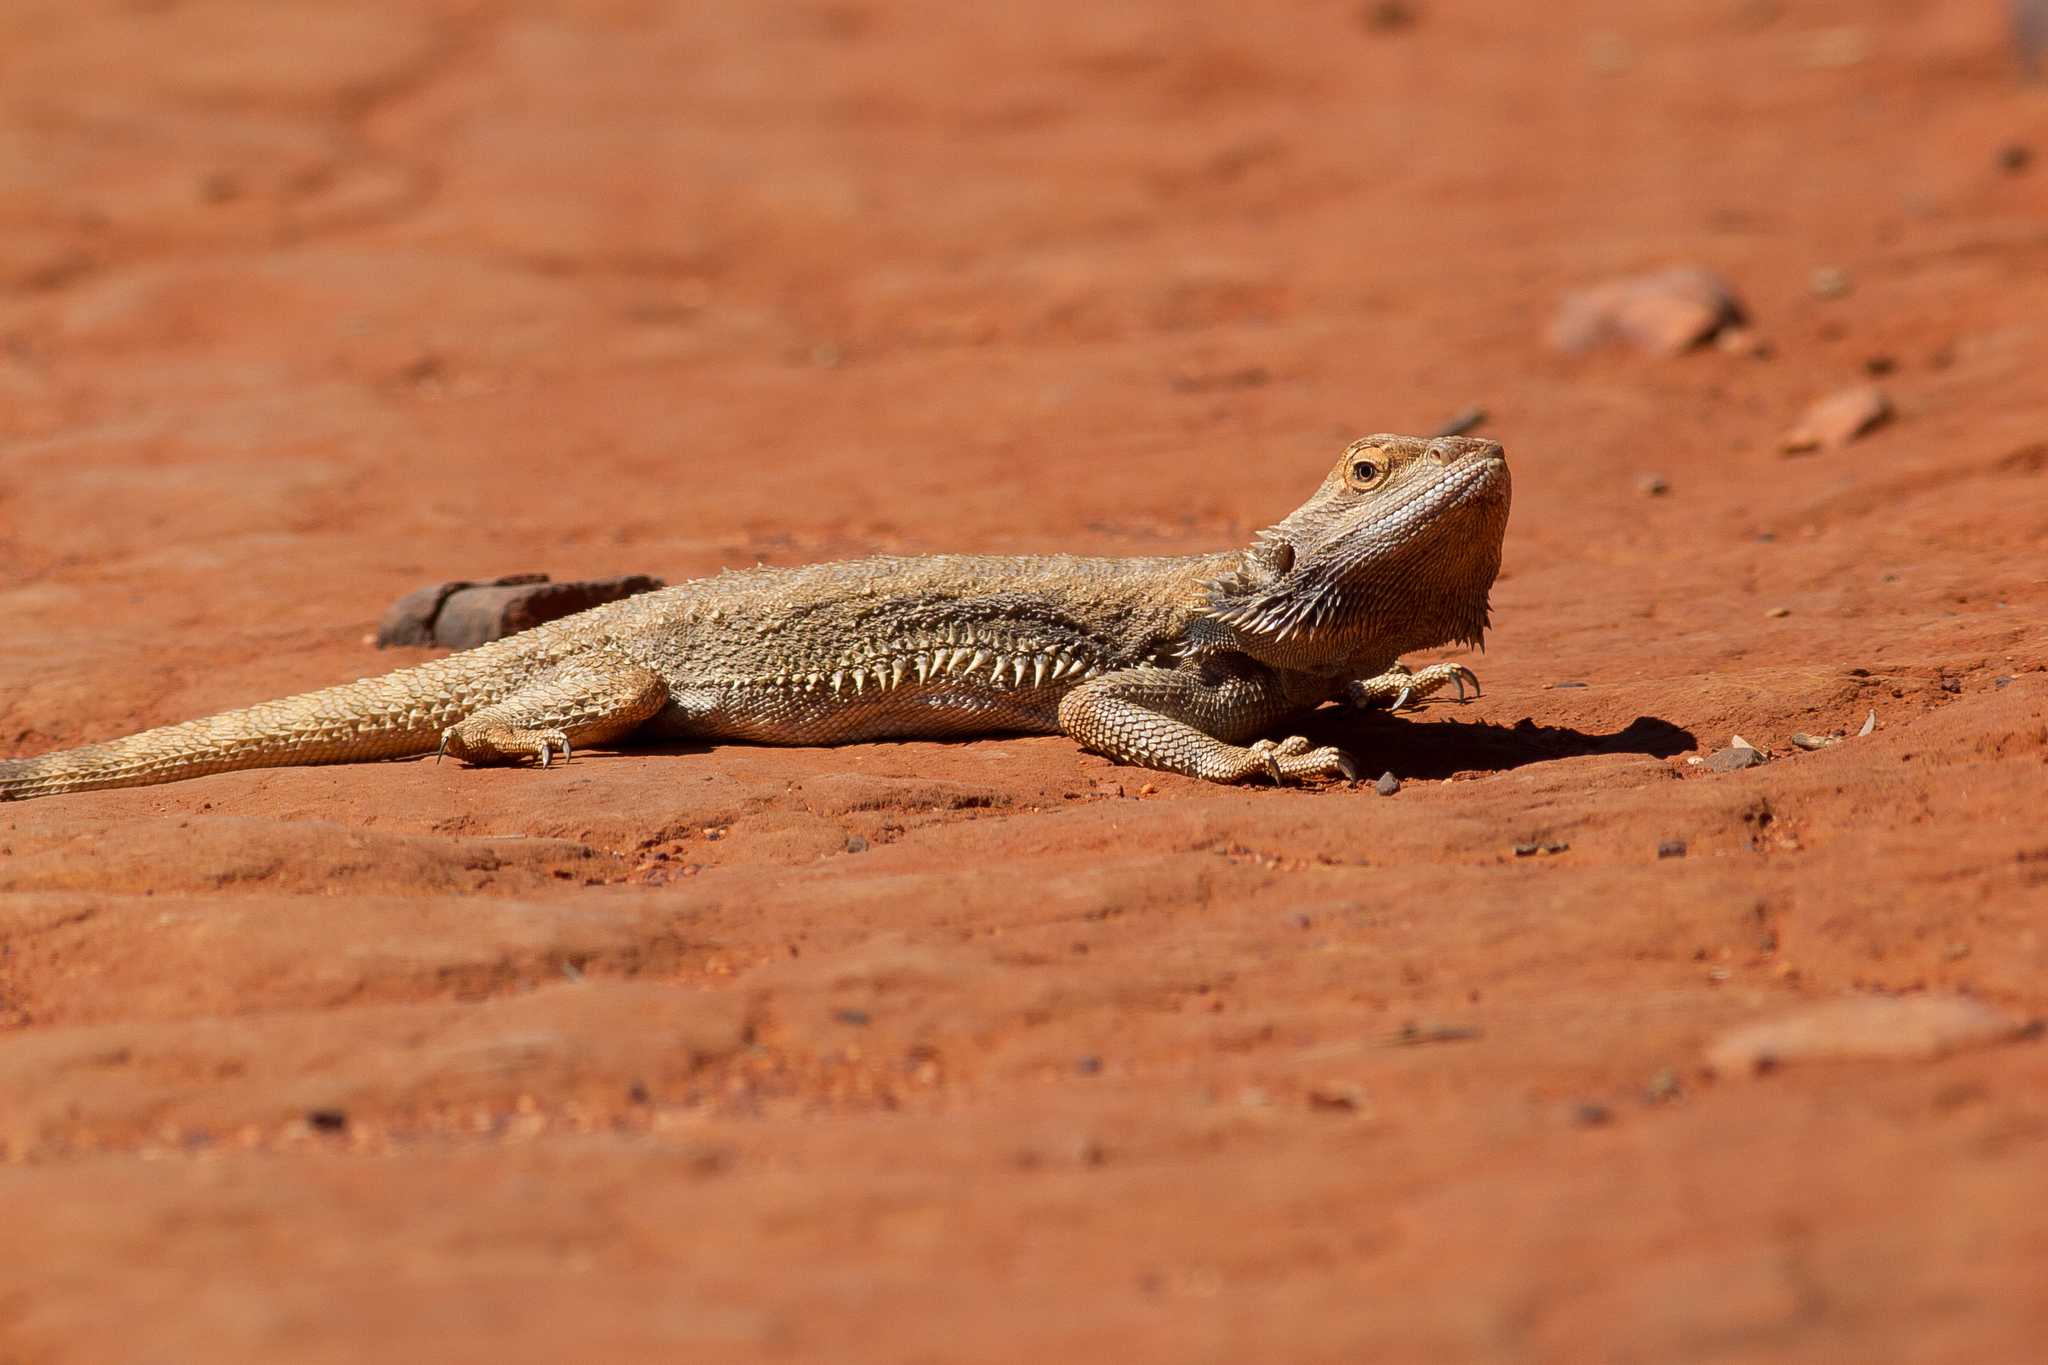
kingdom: Animalia
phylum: Chordata
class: Squamata
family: Agamidae
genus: Pogona
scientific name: Pogona vitticeps
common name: Central bearded dragon
